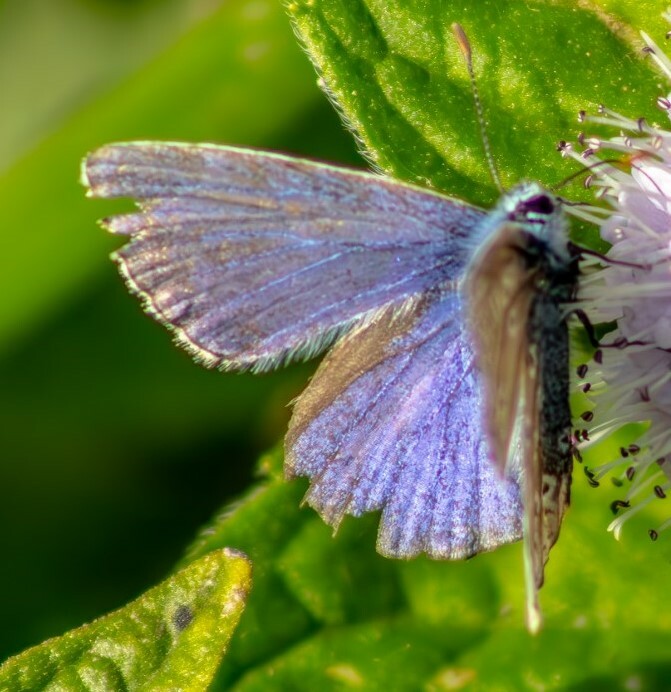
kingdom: Animalia
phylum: Arthropoda
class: Insecta
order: Lepidoptera
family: Lycaenidae
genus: Polyommatus
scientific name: Polyommatus icarus
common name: Common blue
